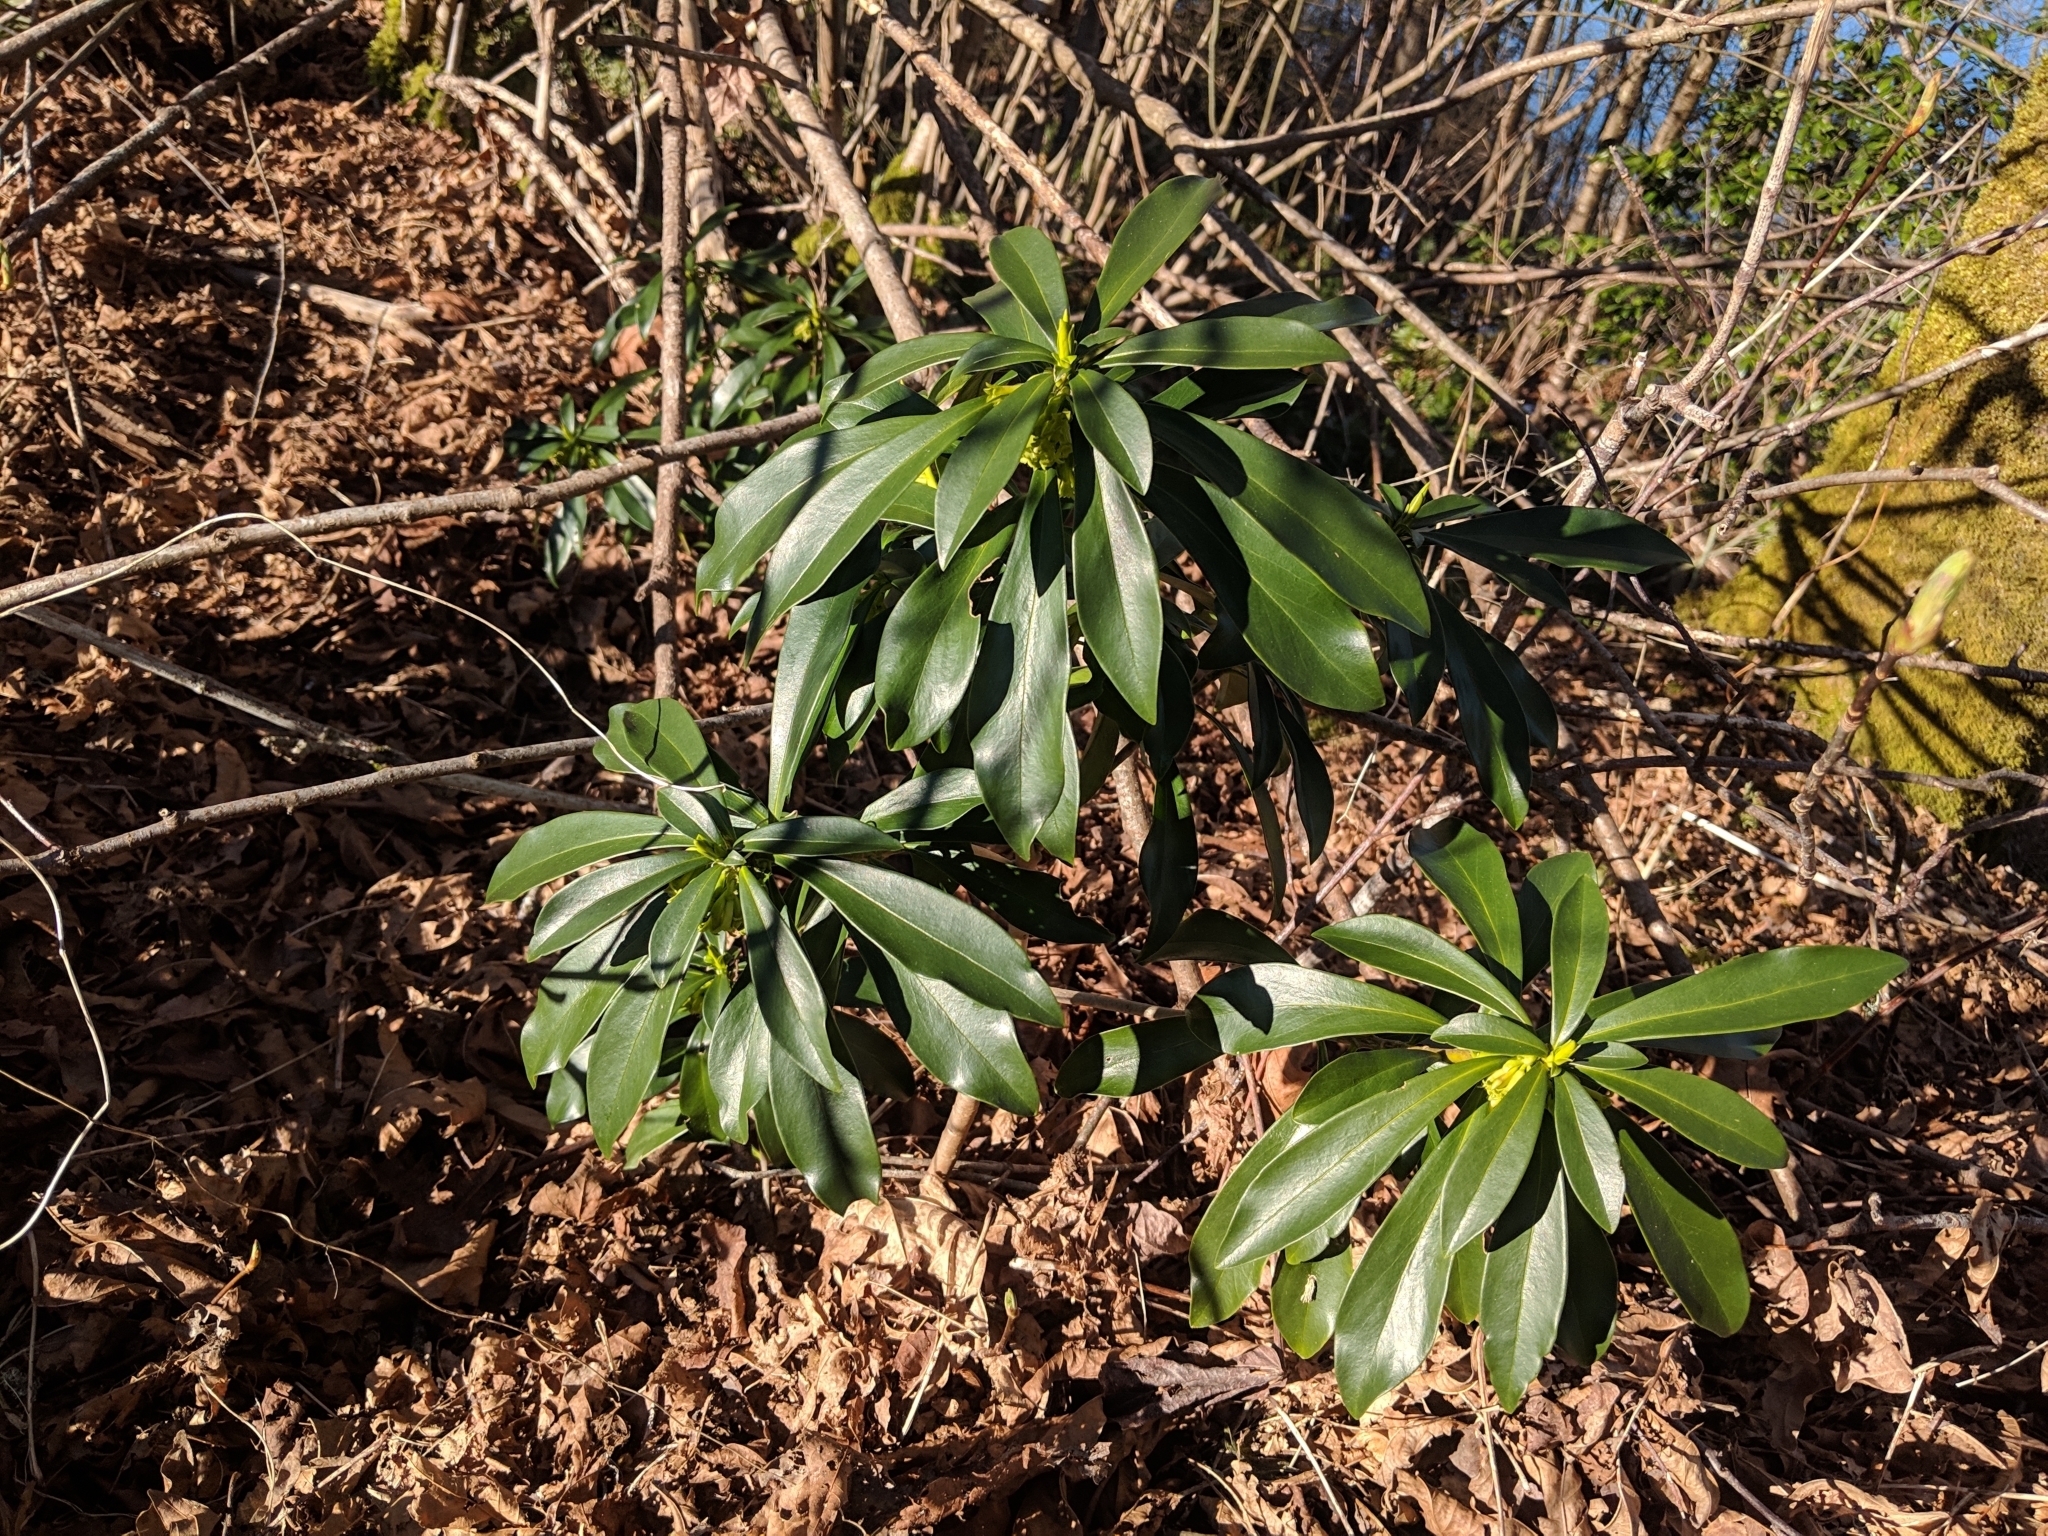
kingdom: Plantae
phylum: Tracheophyta
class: Magnoliopsida
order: Malvales
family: Thymelaeaceae
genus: Daphne
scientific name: Daphne laureola
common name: Spurge-laurel
